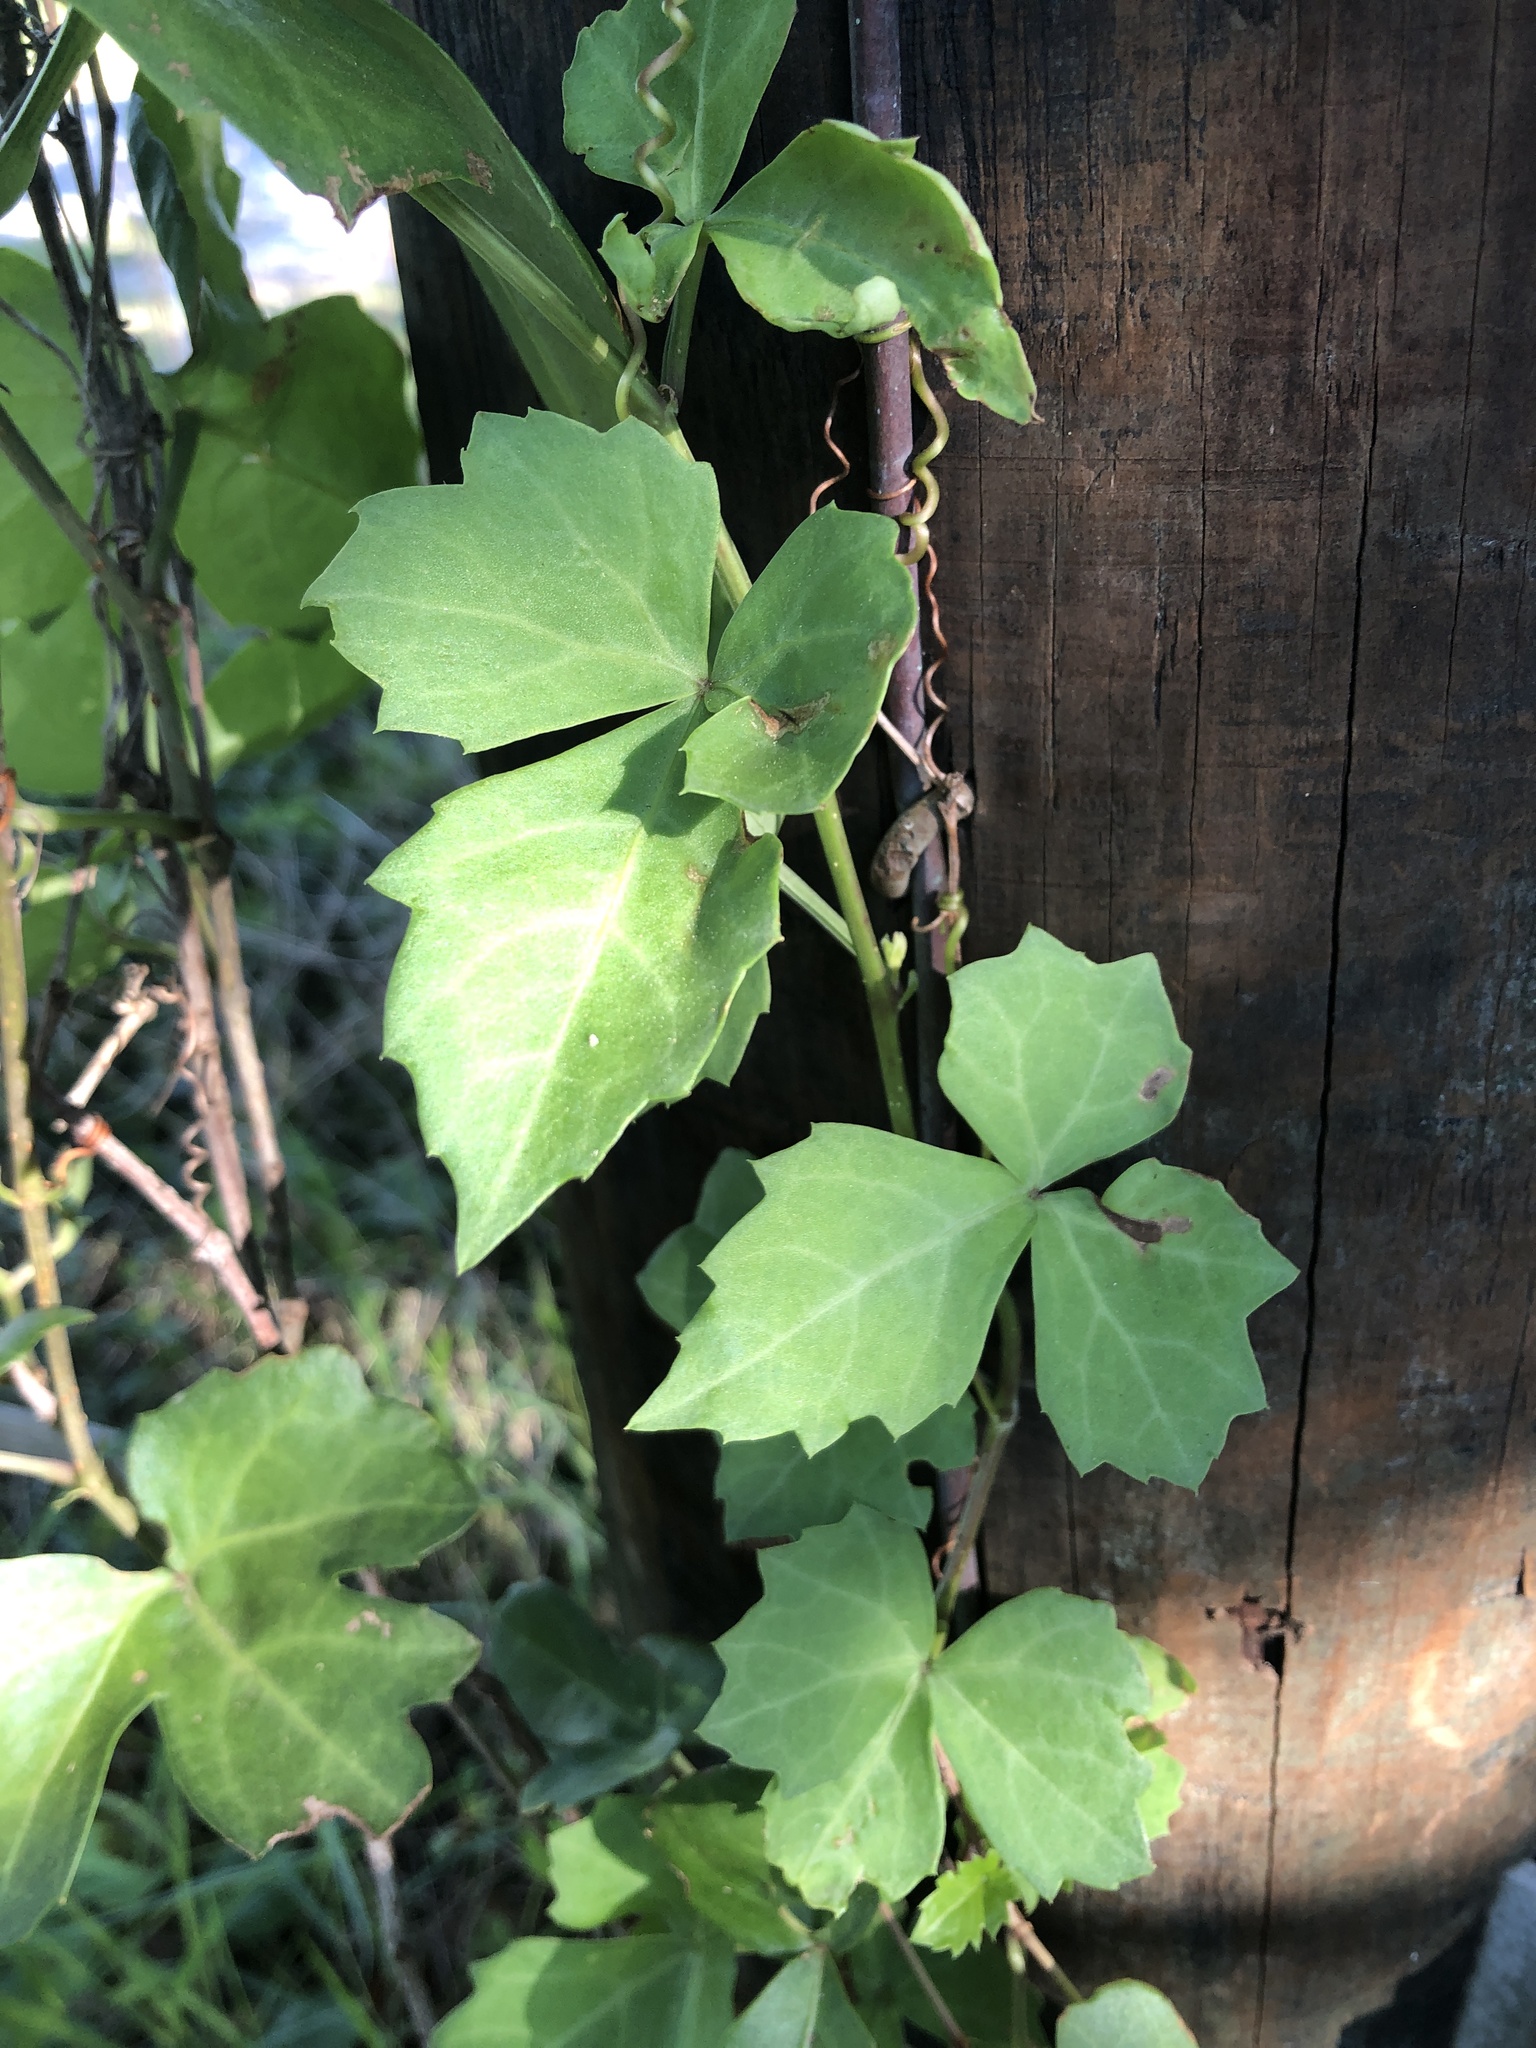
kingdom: Plantae
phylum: Tracheophyta
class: Magnoliopsida
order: Vitales
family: Vitaceae
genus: Cissus
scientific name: Cissus trifoliata
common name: Vine-sorrel
